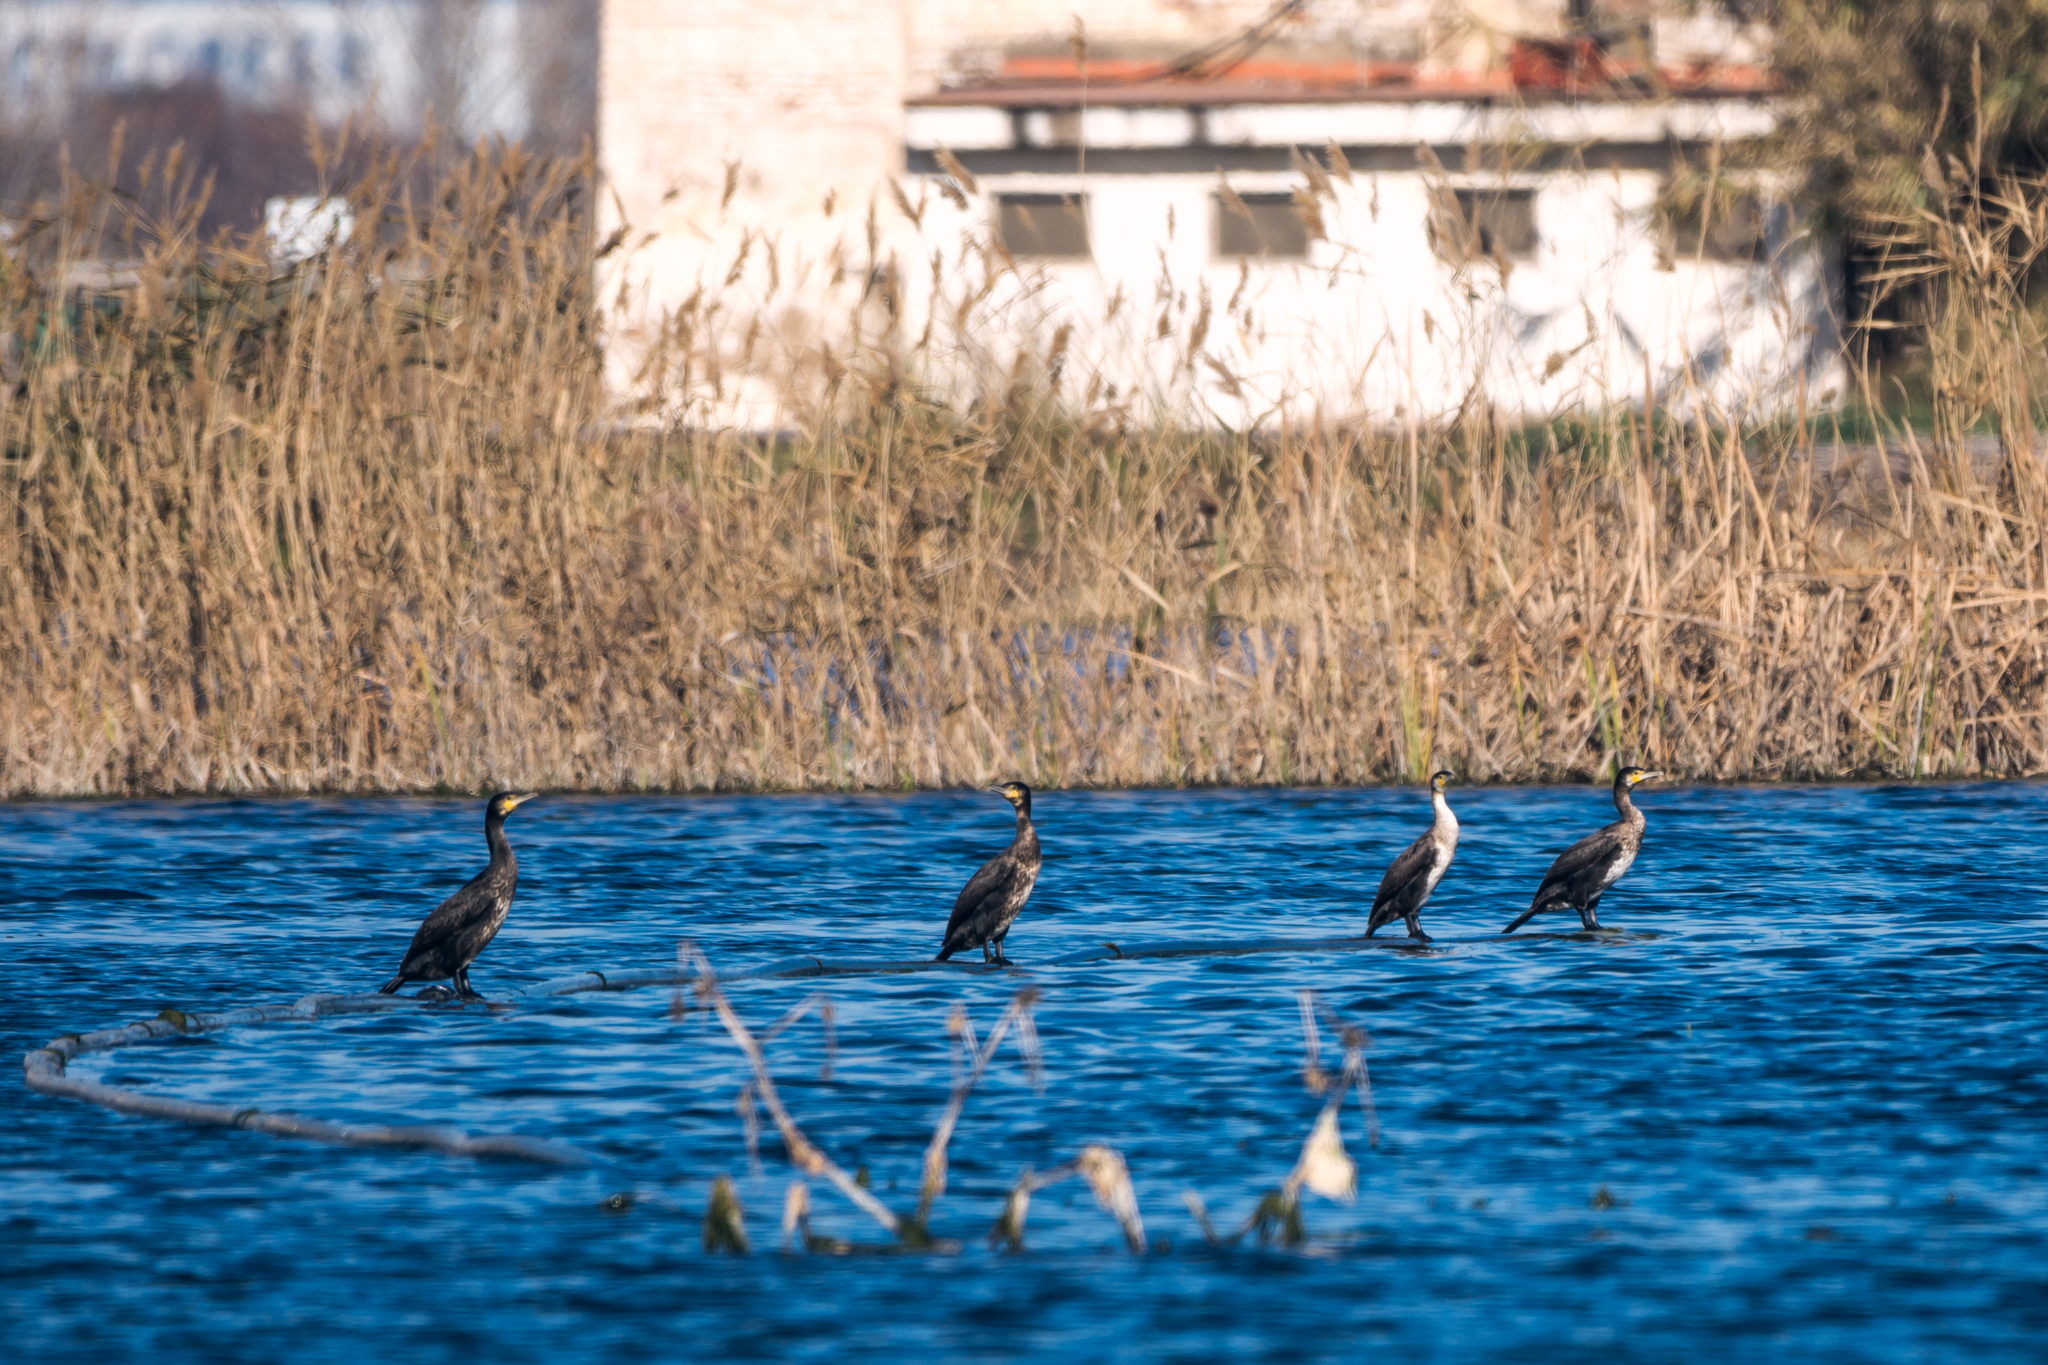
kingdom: Animalia
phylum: Chordata
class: Aves
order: Suliformes
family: Phalacrocoracidae
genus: Phalacrocorax
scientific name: Phalacrocorax carbo
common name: Great cormorant
